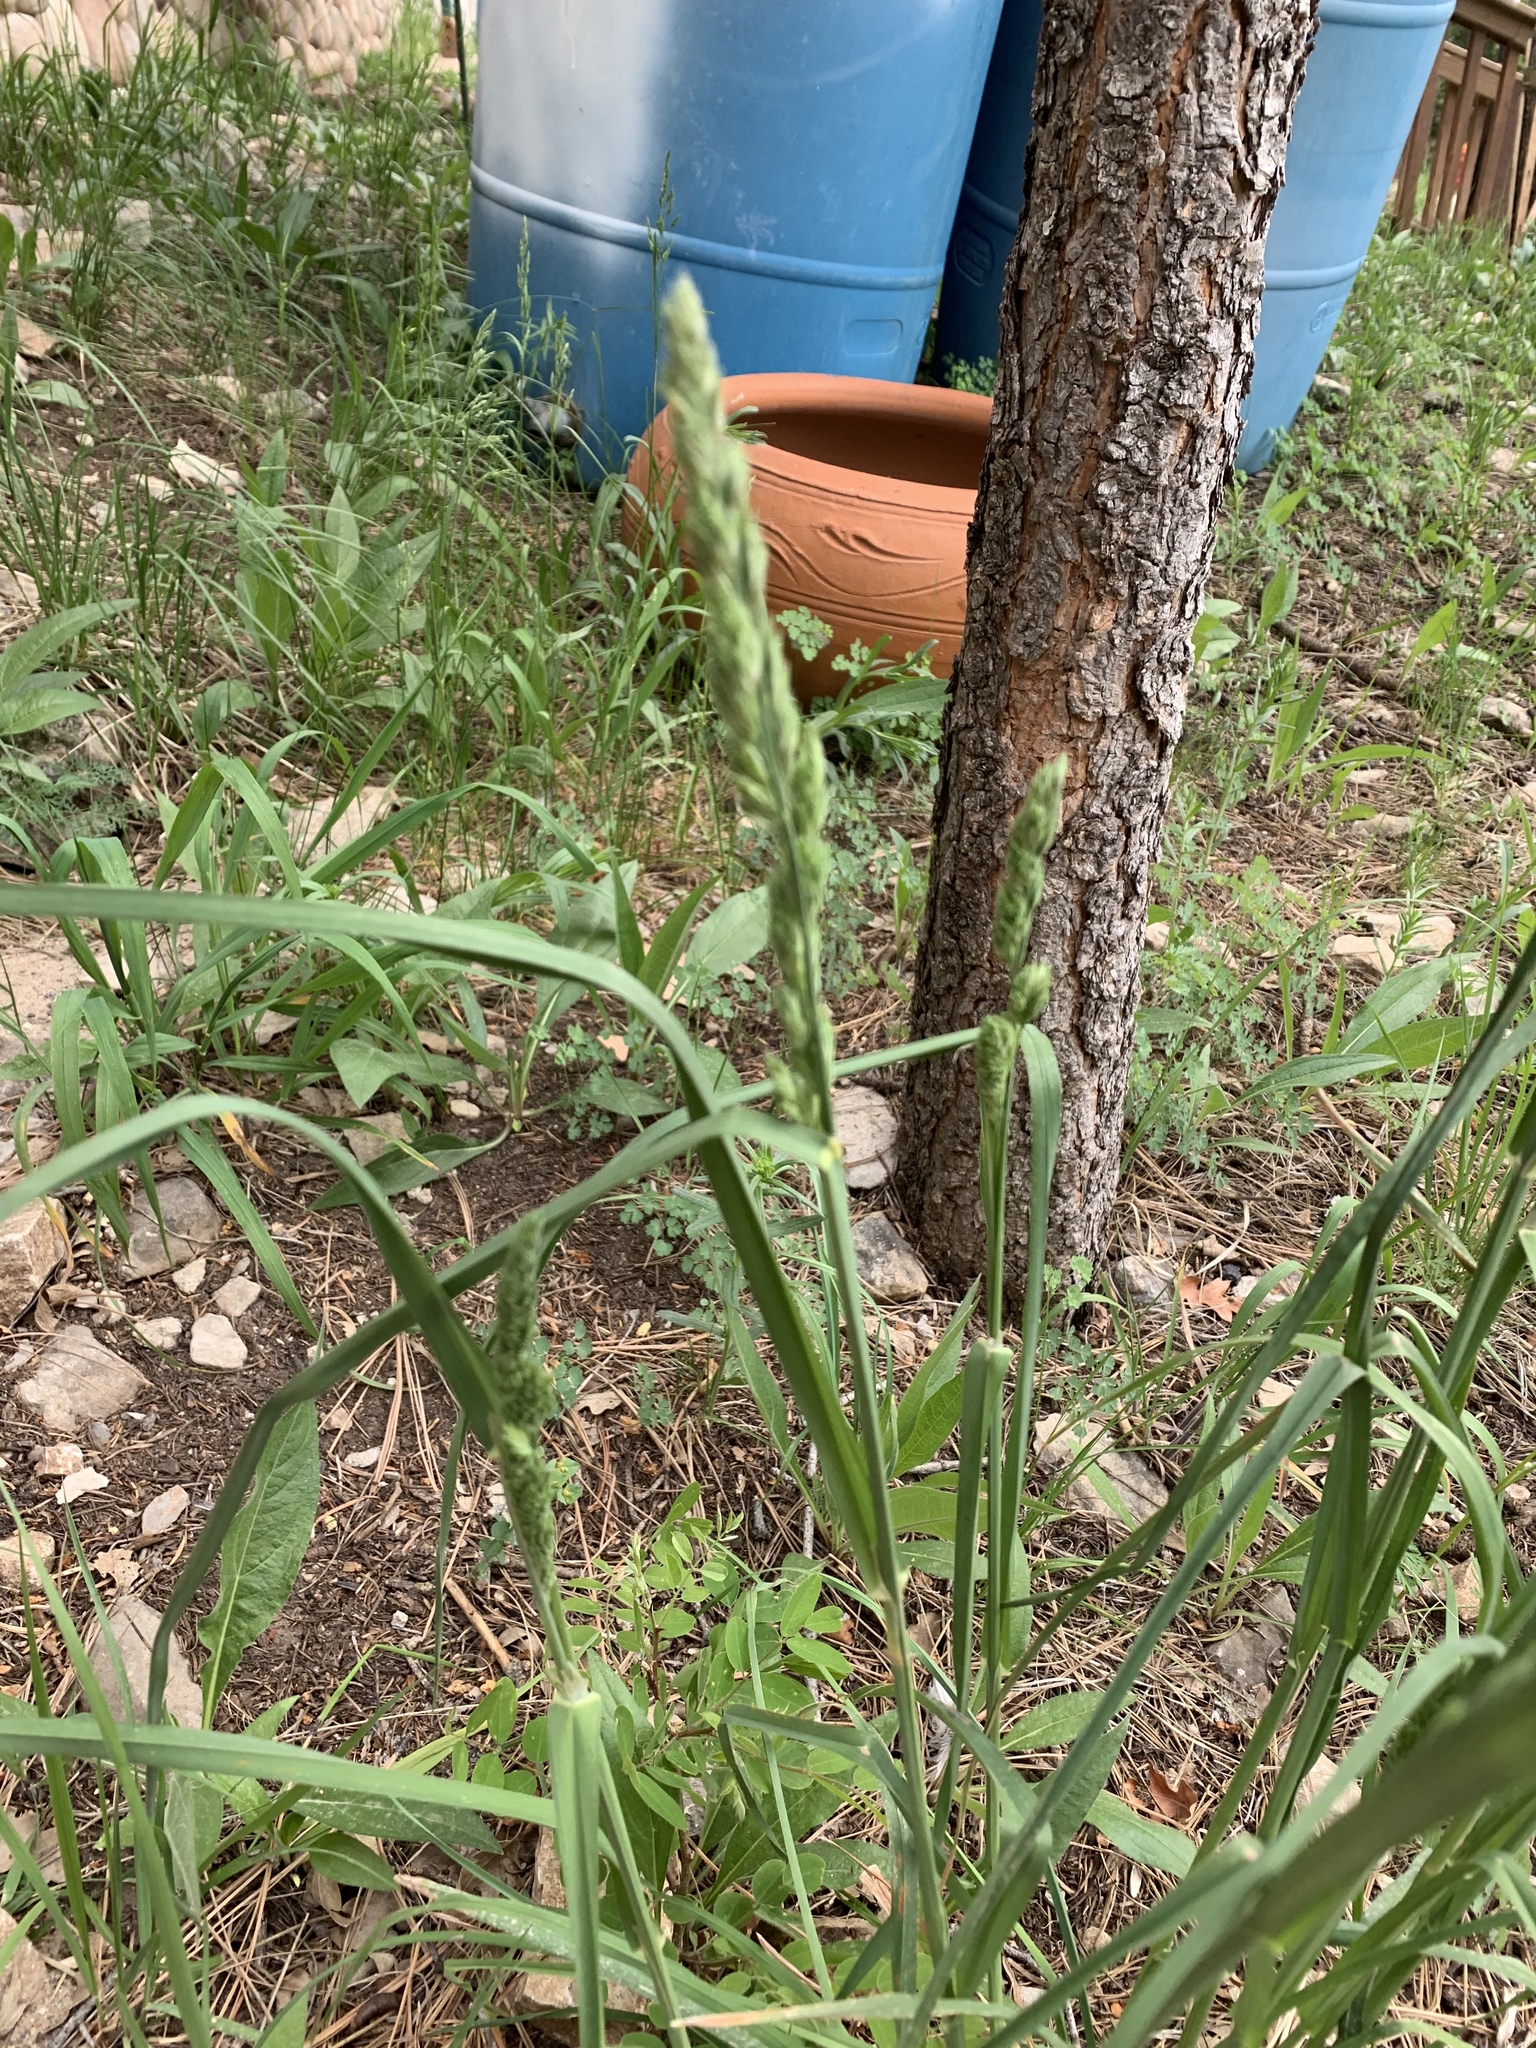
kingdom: Plantae
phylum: Tracheophyta
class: Liliopsida
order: Poales
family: Poaceae
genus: Dactylis
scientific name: Dactylis glomerata
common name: Orchardgrass
